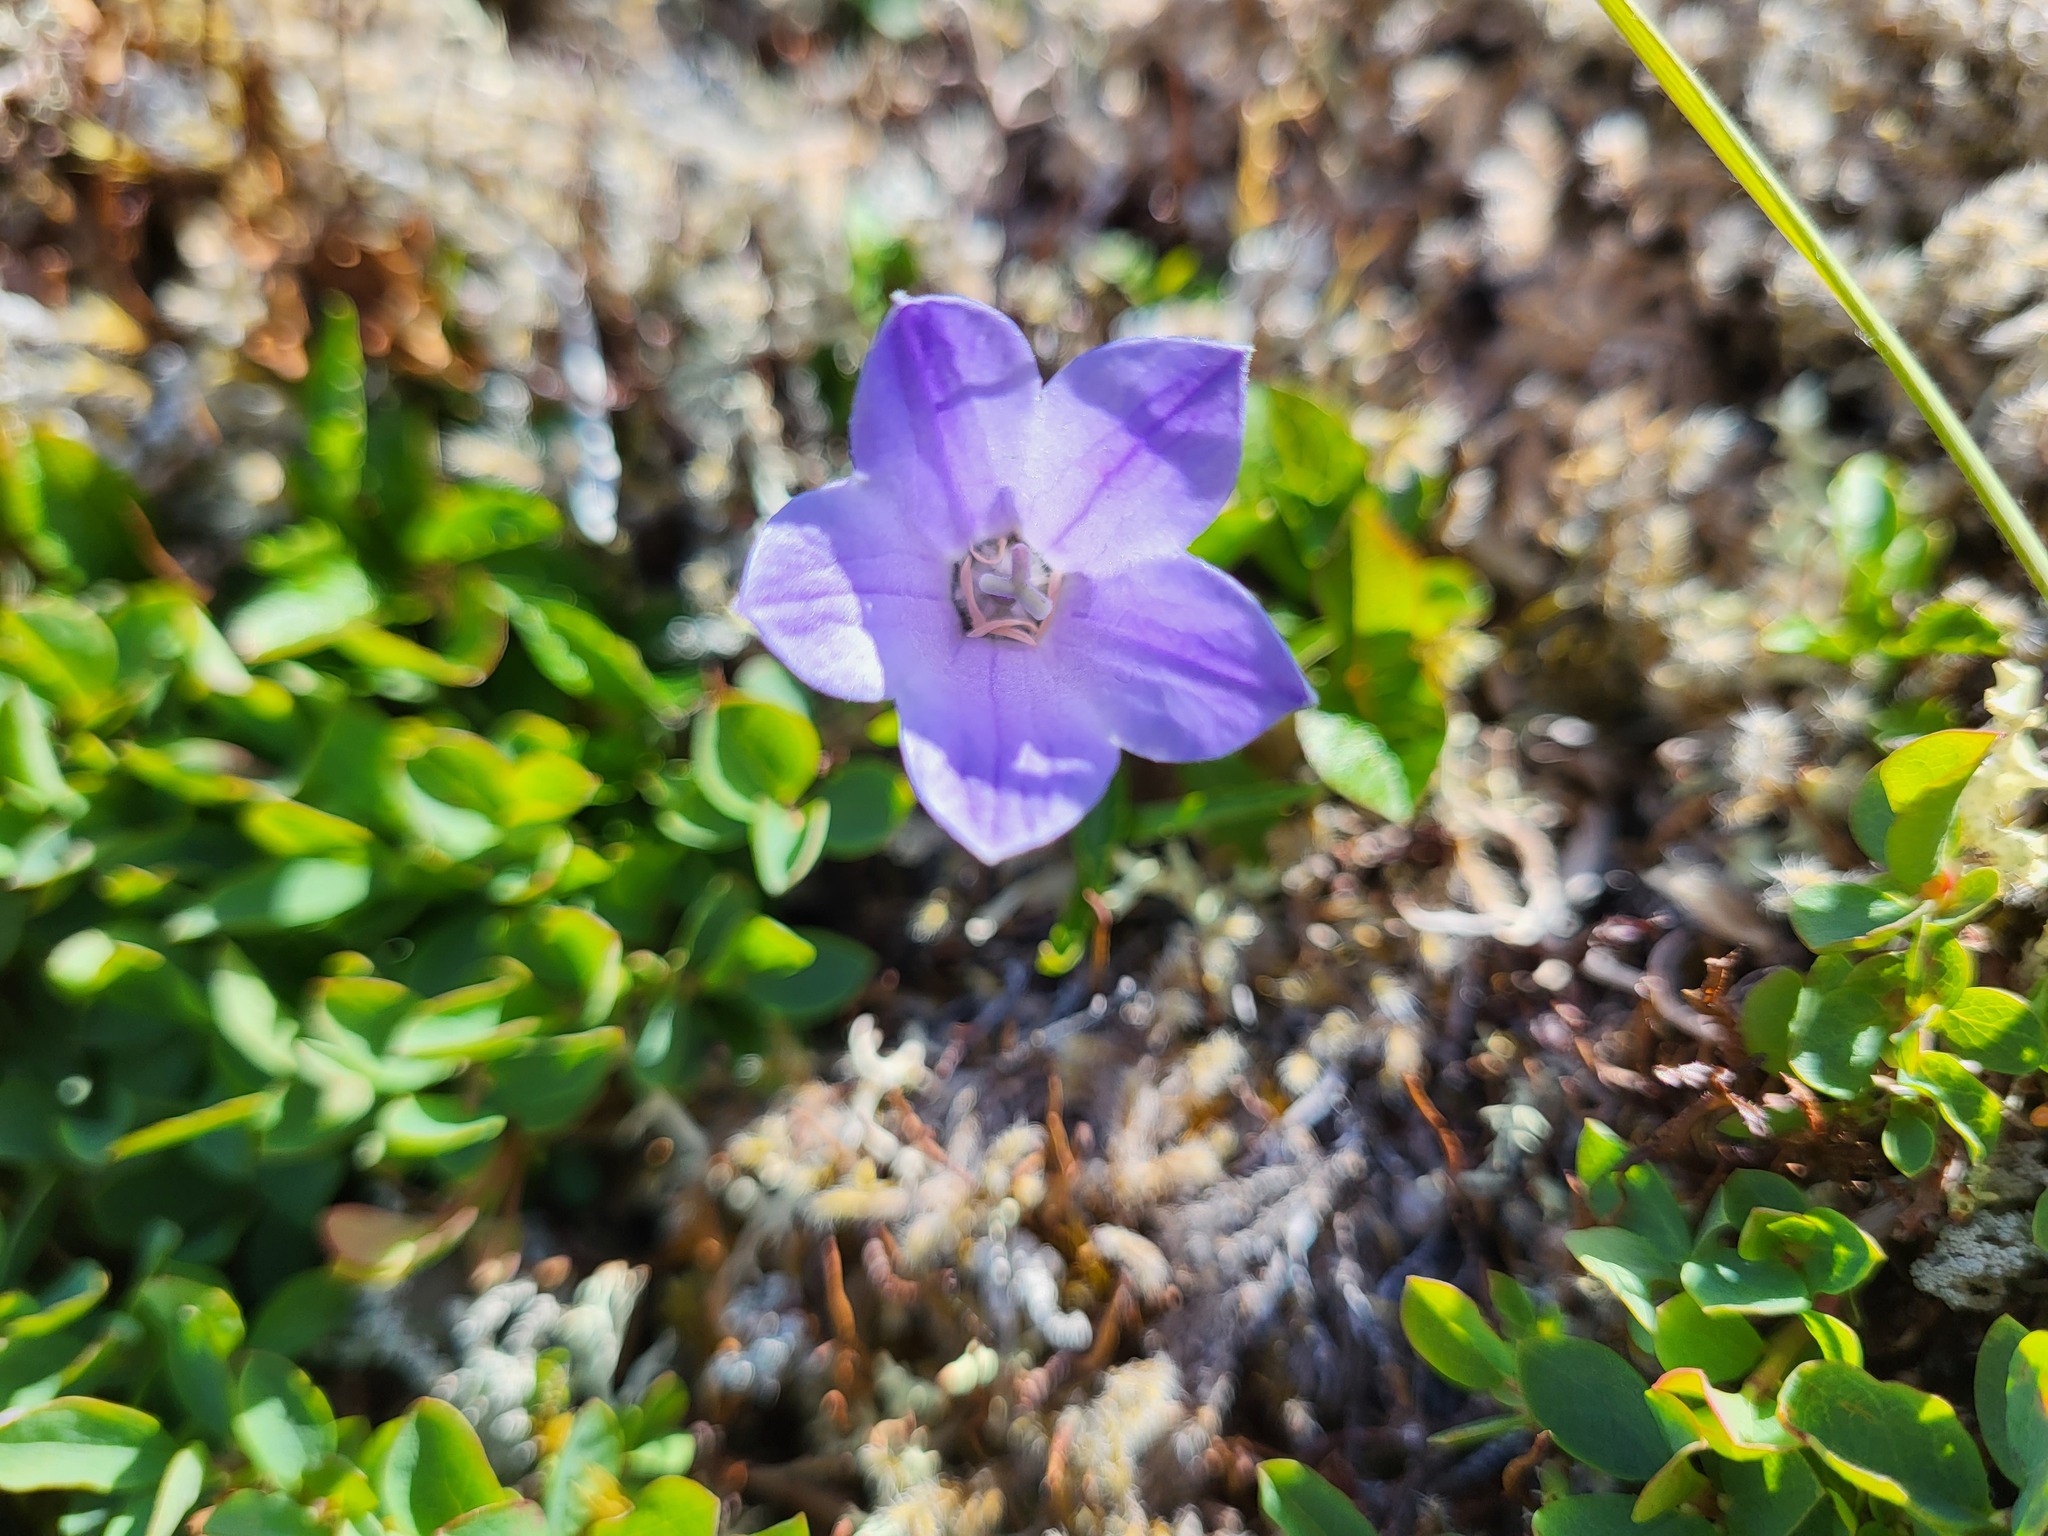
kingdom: Plantae
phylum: Tracheophyta
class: Magnoliopsida
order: Asterales
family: Campanulaceae
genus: Campanula
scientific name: Campanula lasiocarpa
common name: Mountain harebell
